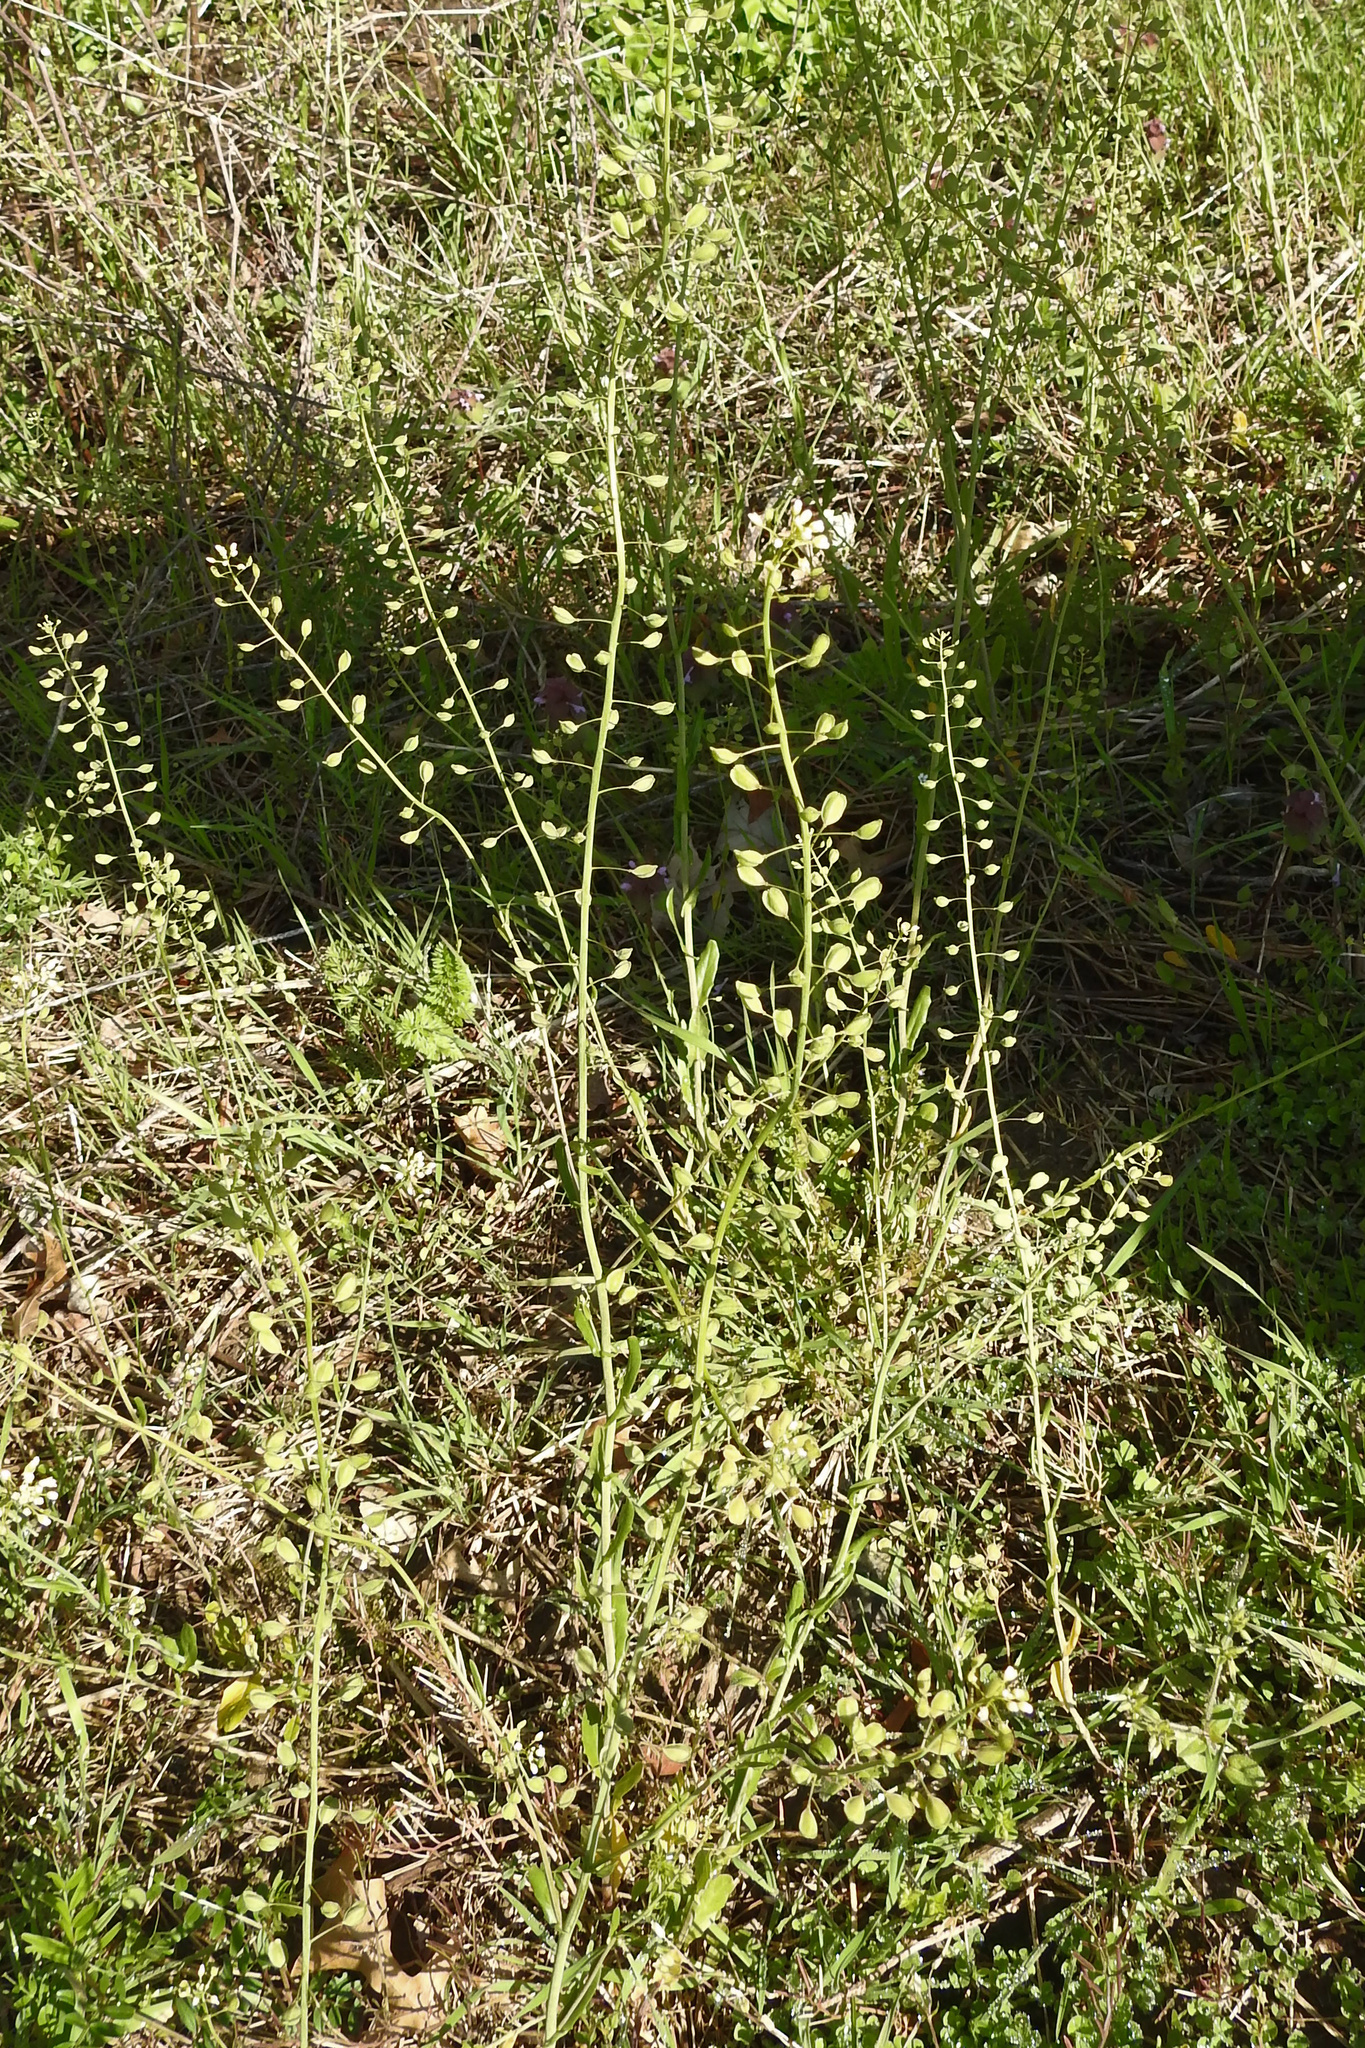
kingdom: Plantae
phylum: Tracheophyta
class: Magnoliopsida
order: Brassicales
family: Brassicaceae
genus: Capsella
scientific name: Capsella bursa-pastoris
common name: Shepherd's purse
